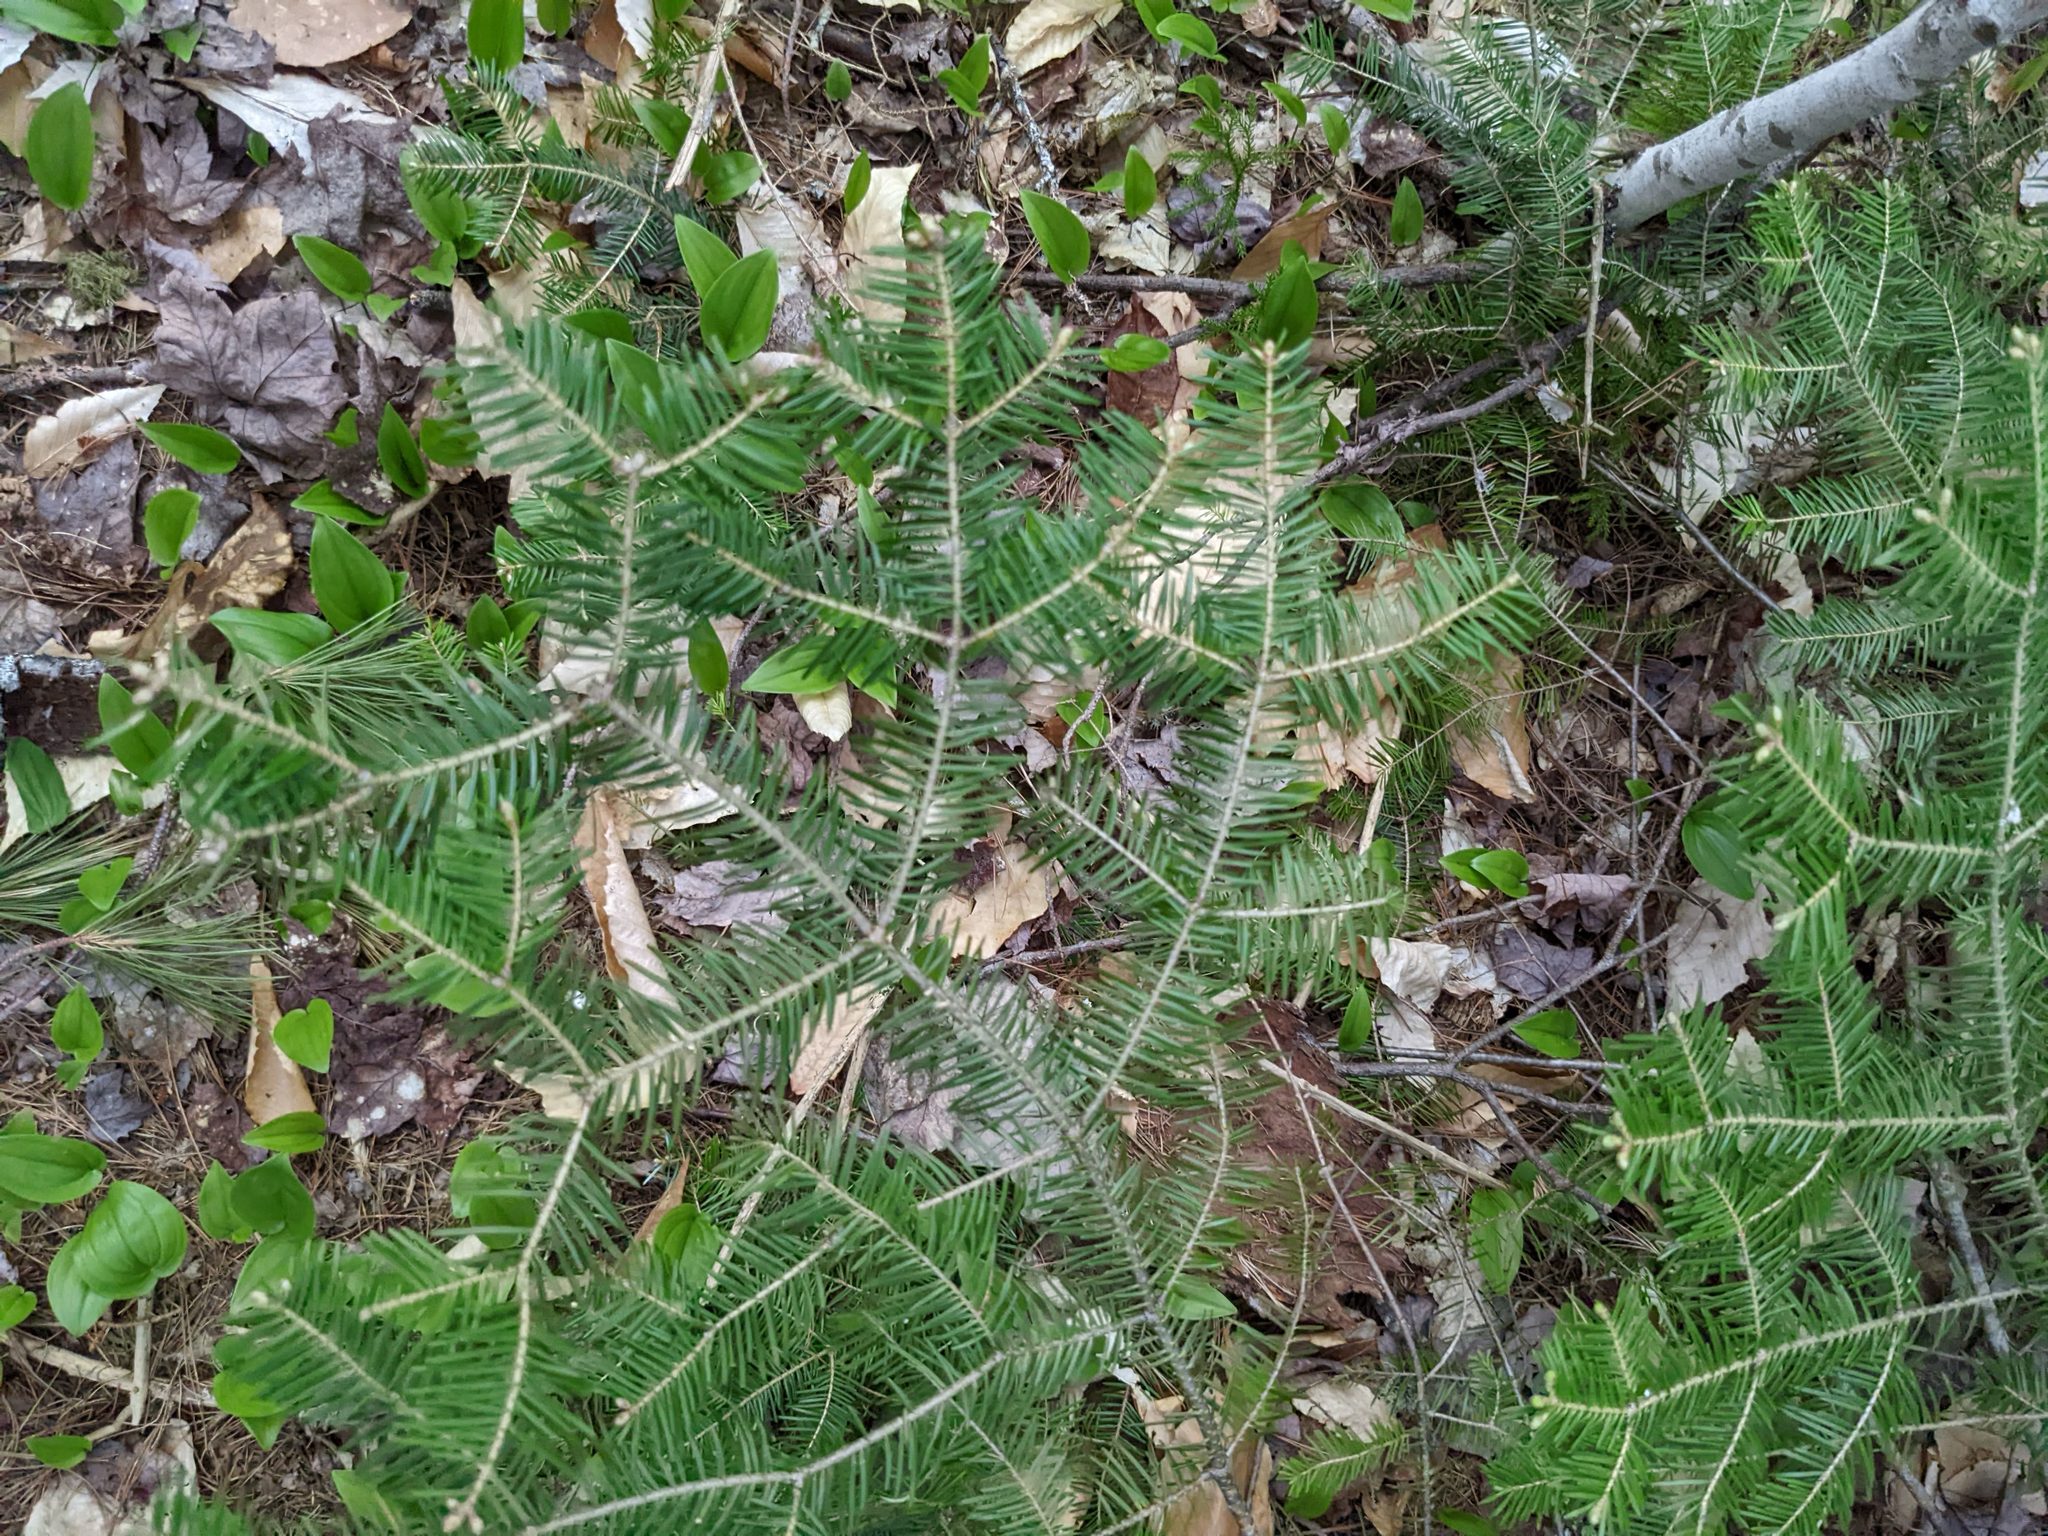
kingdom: Plantae
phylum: Tracheophyta
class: Pinopsida
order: Pinales
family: Pinaceae
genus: Abies
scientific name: Abies balsamea
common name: Balsam fir
